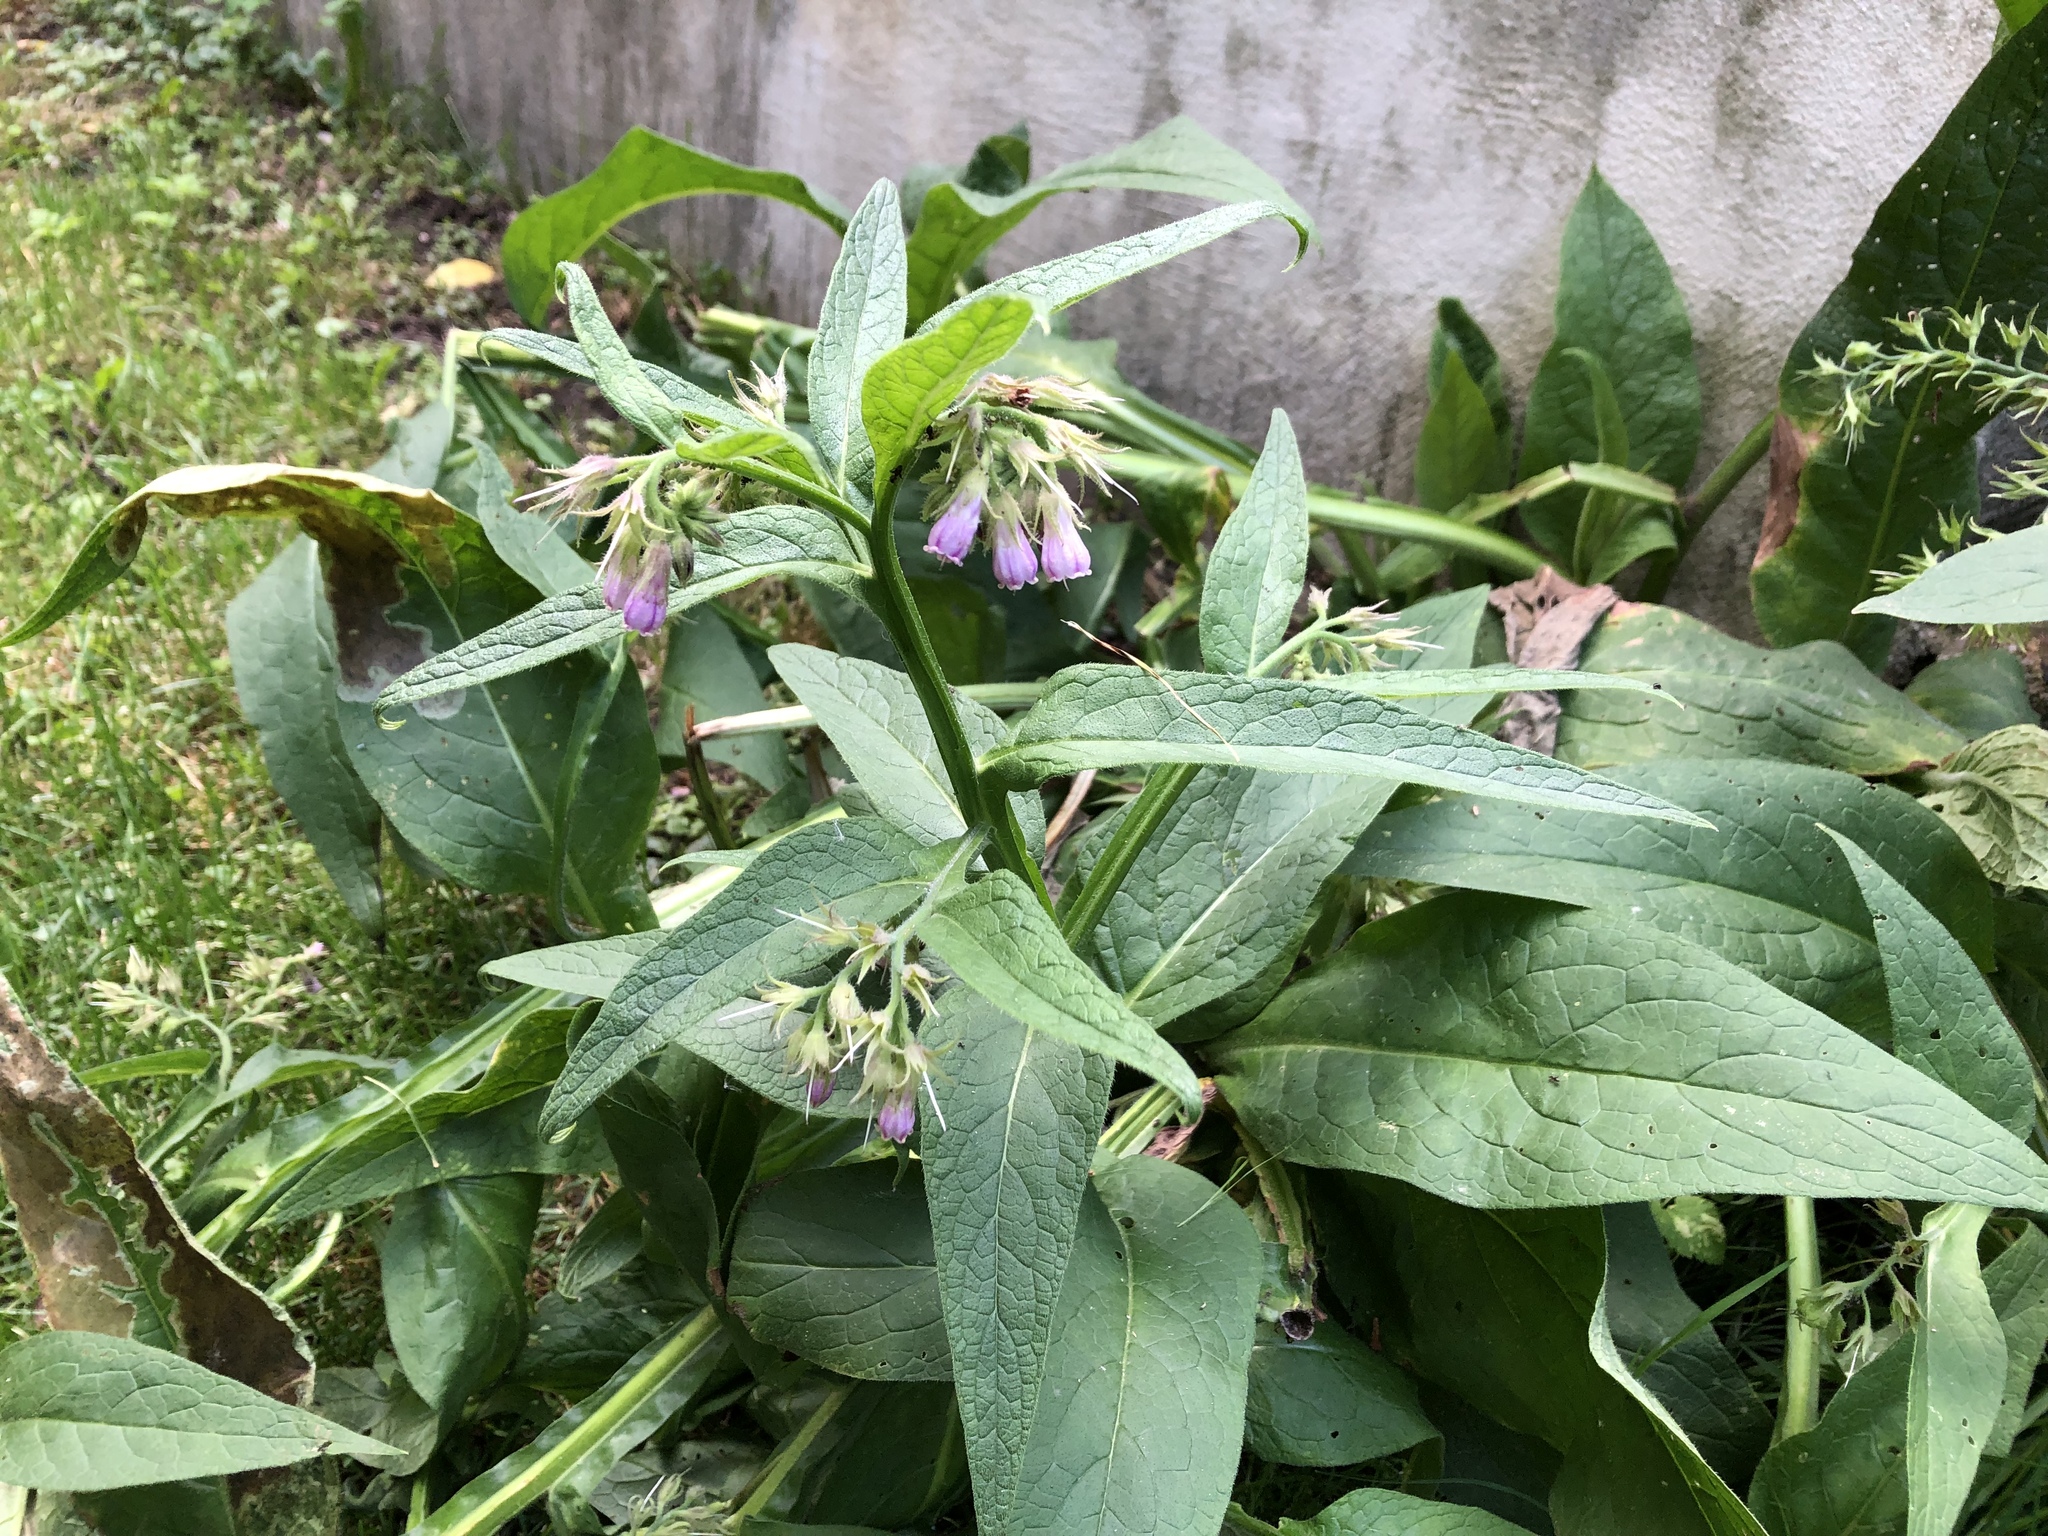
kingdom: Plantae
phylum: Tracheophyta
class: Magnoliopsida
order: Boraginales
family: Boraginaceae
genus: Symphytum
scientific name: Symphytum officinale
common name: Common comfrey
